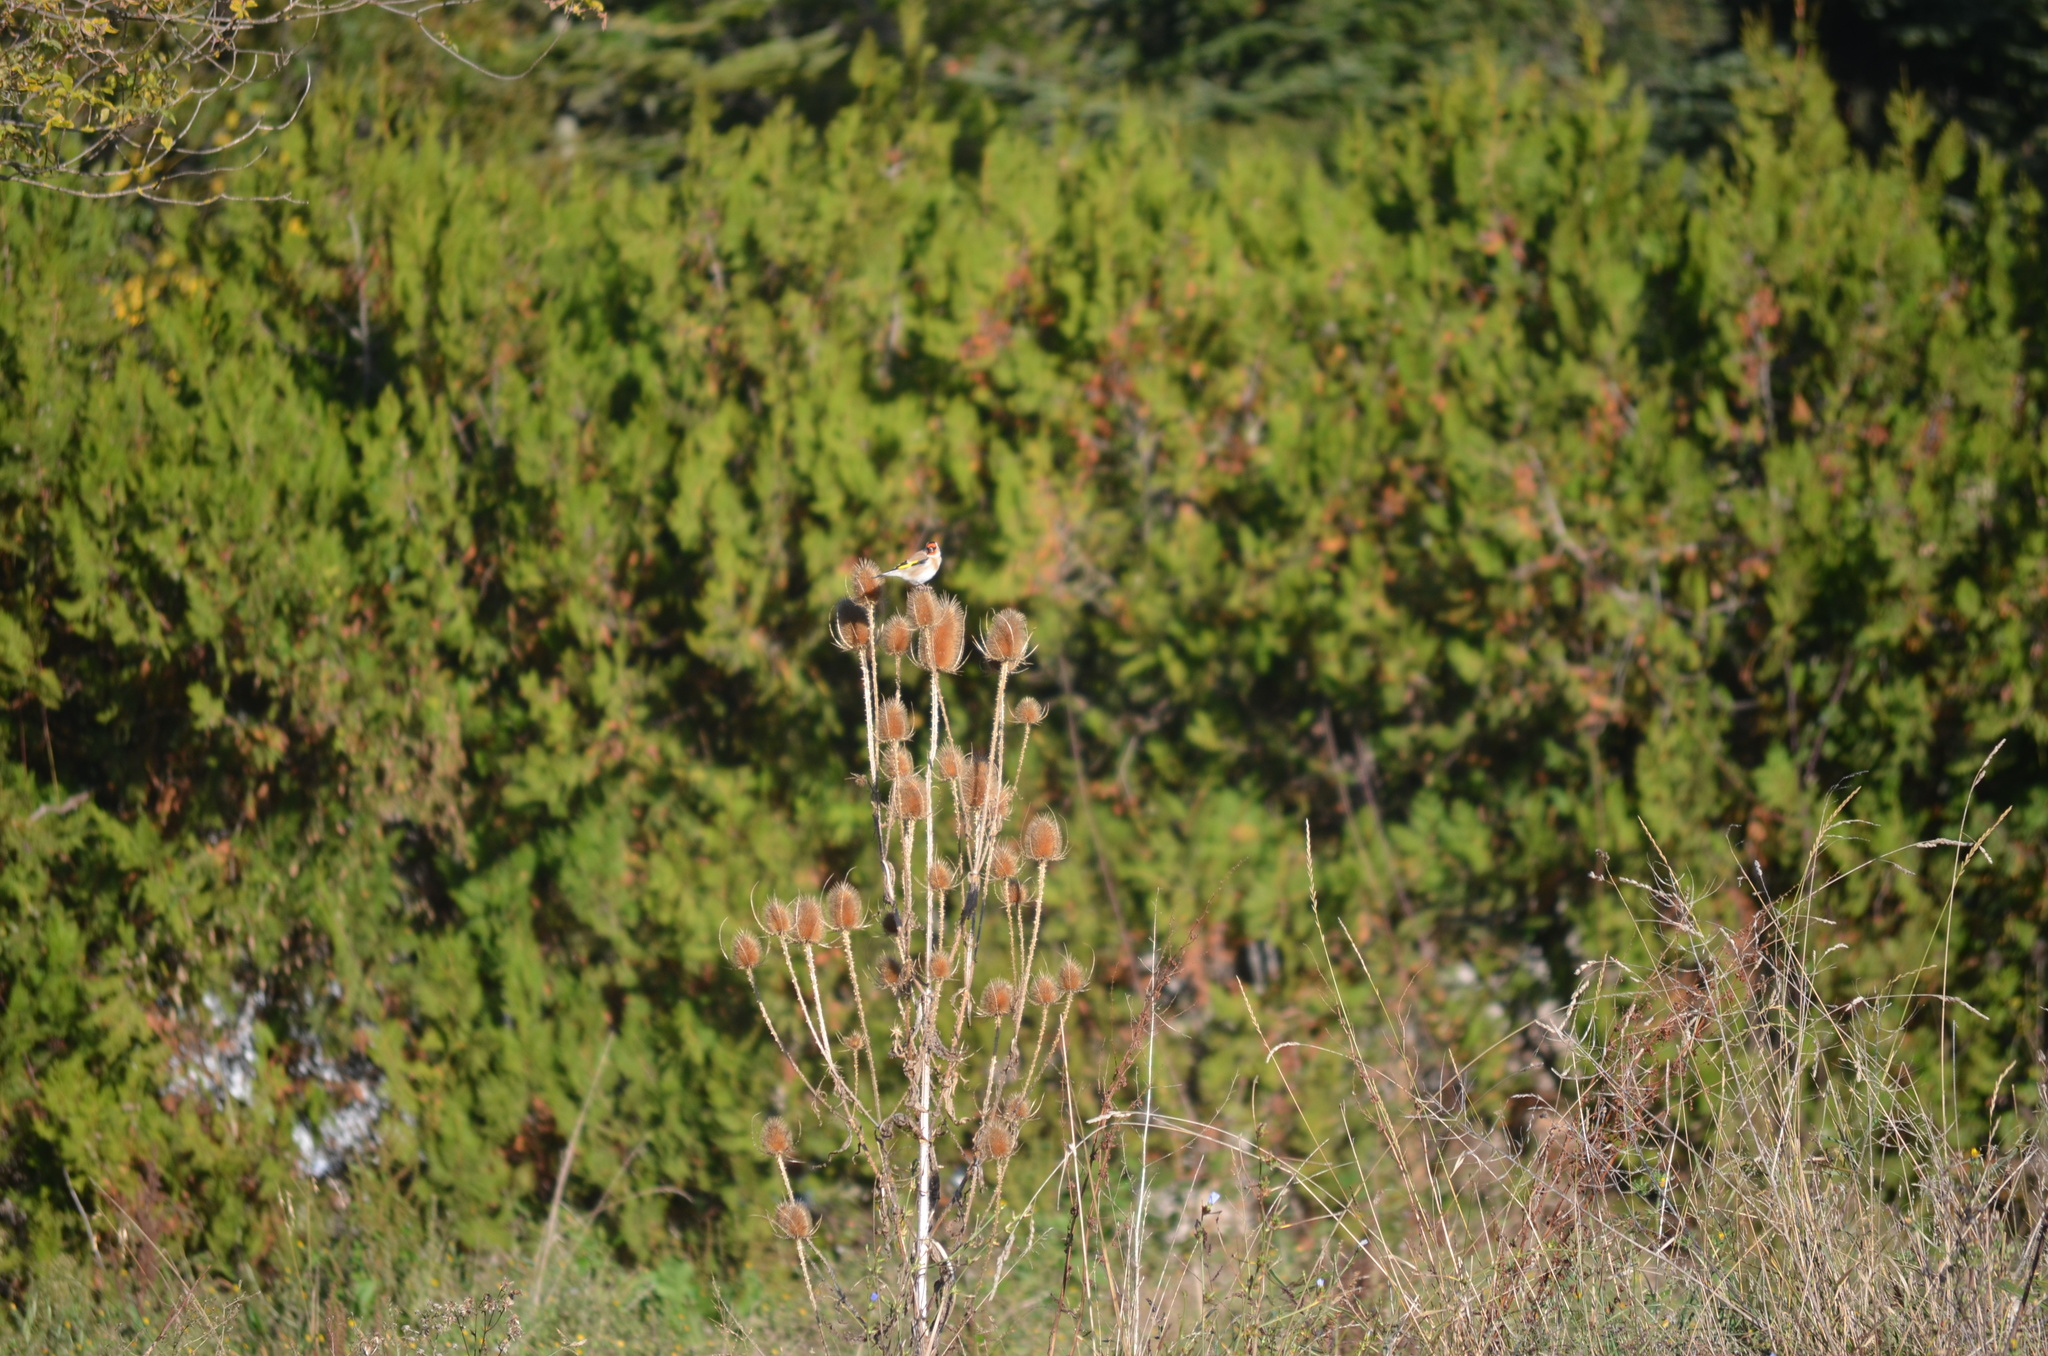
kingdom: Animalia
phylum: Chordata
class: Aves
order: Passeriformes
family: Fringillidae
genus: Carduelis
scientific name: Carduelis carduelis
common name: European goldfinch
